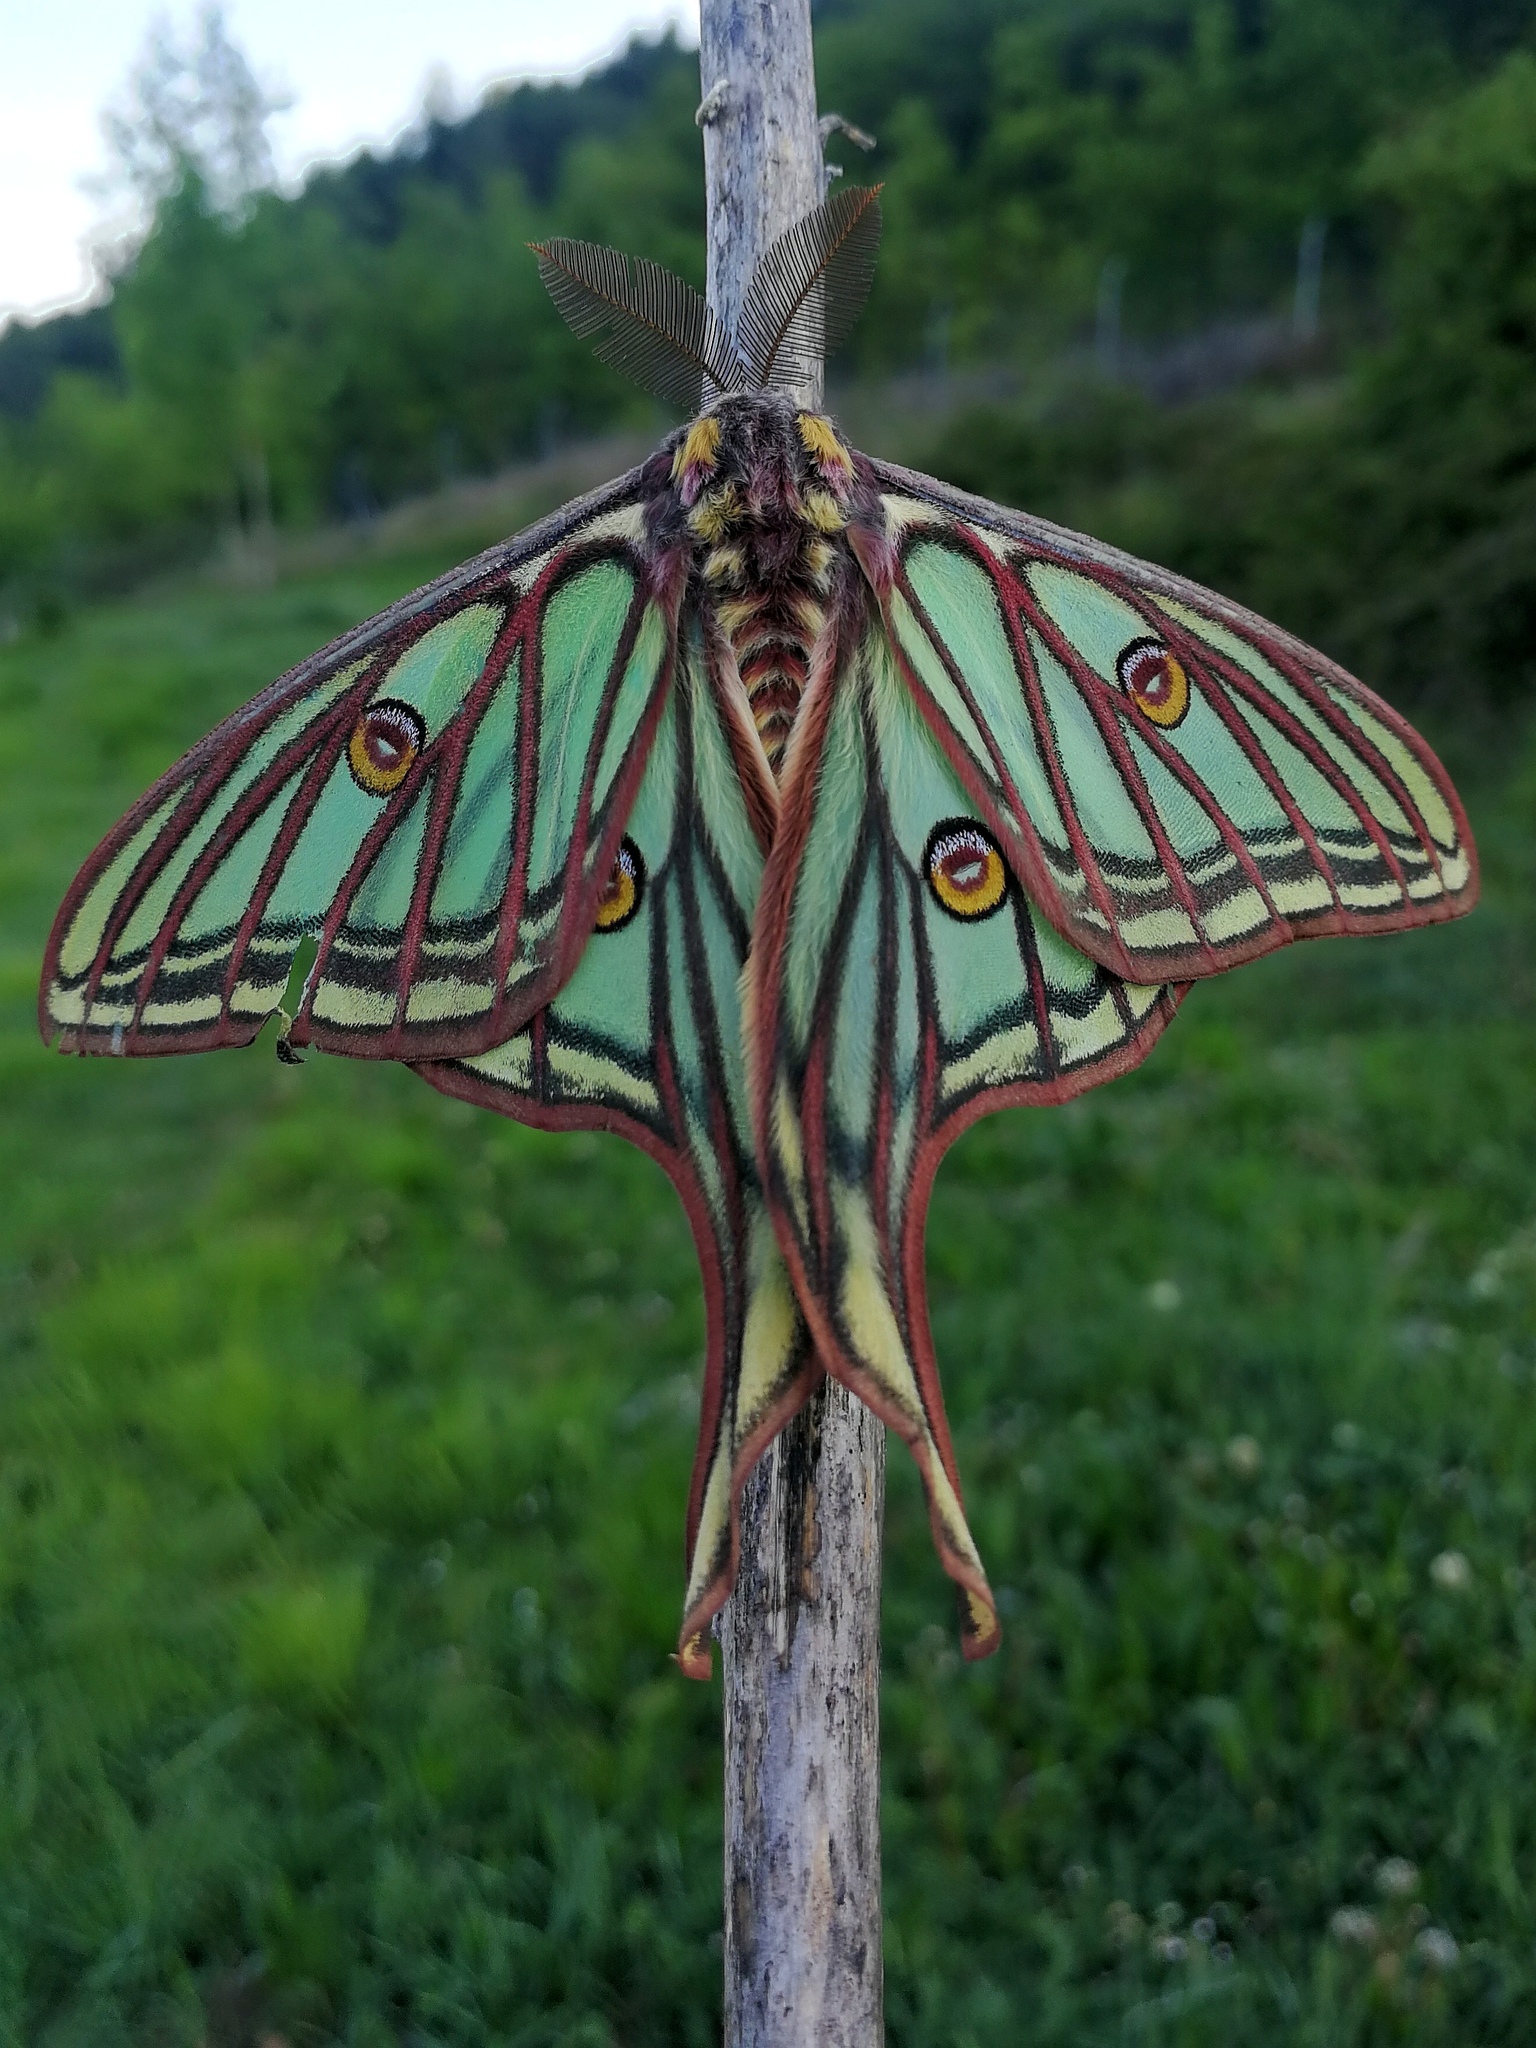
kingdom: Animalia
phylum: Arthropoda
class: Insecta
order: Lepidoptera
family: Saturniidae
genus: Graellsia
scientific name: Graellsia isabellae
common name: Spanish moon moth
